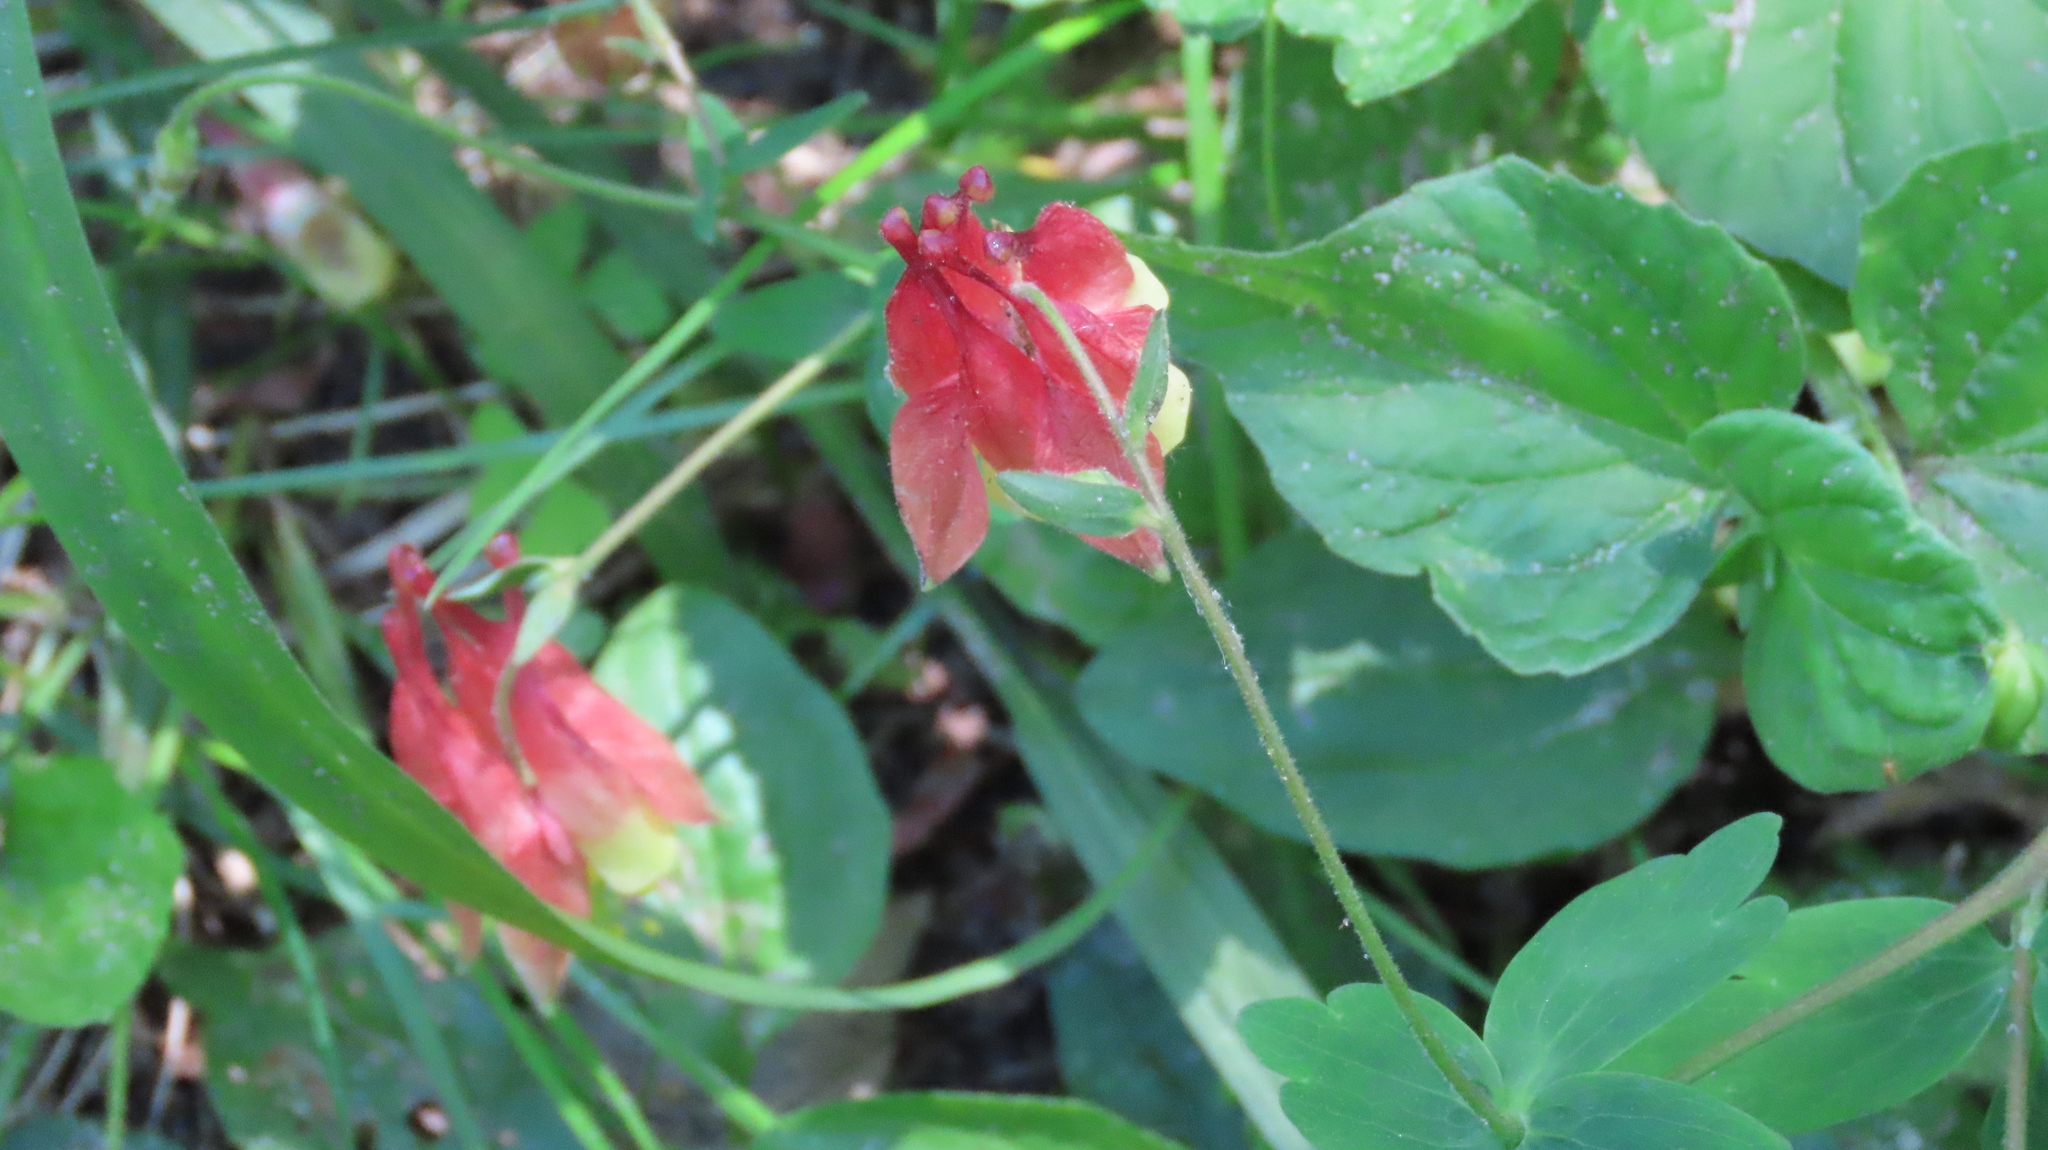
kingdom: Plantae
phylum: Tracheophyta
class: Magnoliopsida
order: Ranunculales
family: Ranunculaceae
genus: Aquilegia
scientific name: Aquilegia canadensis
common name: American columbine
